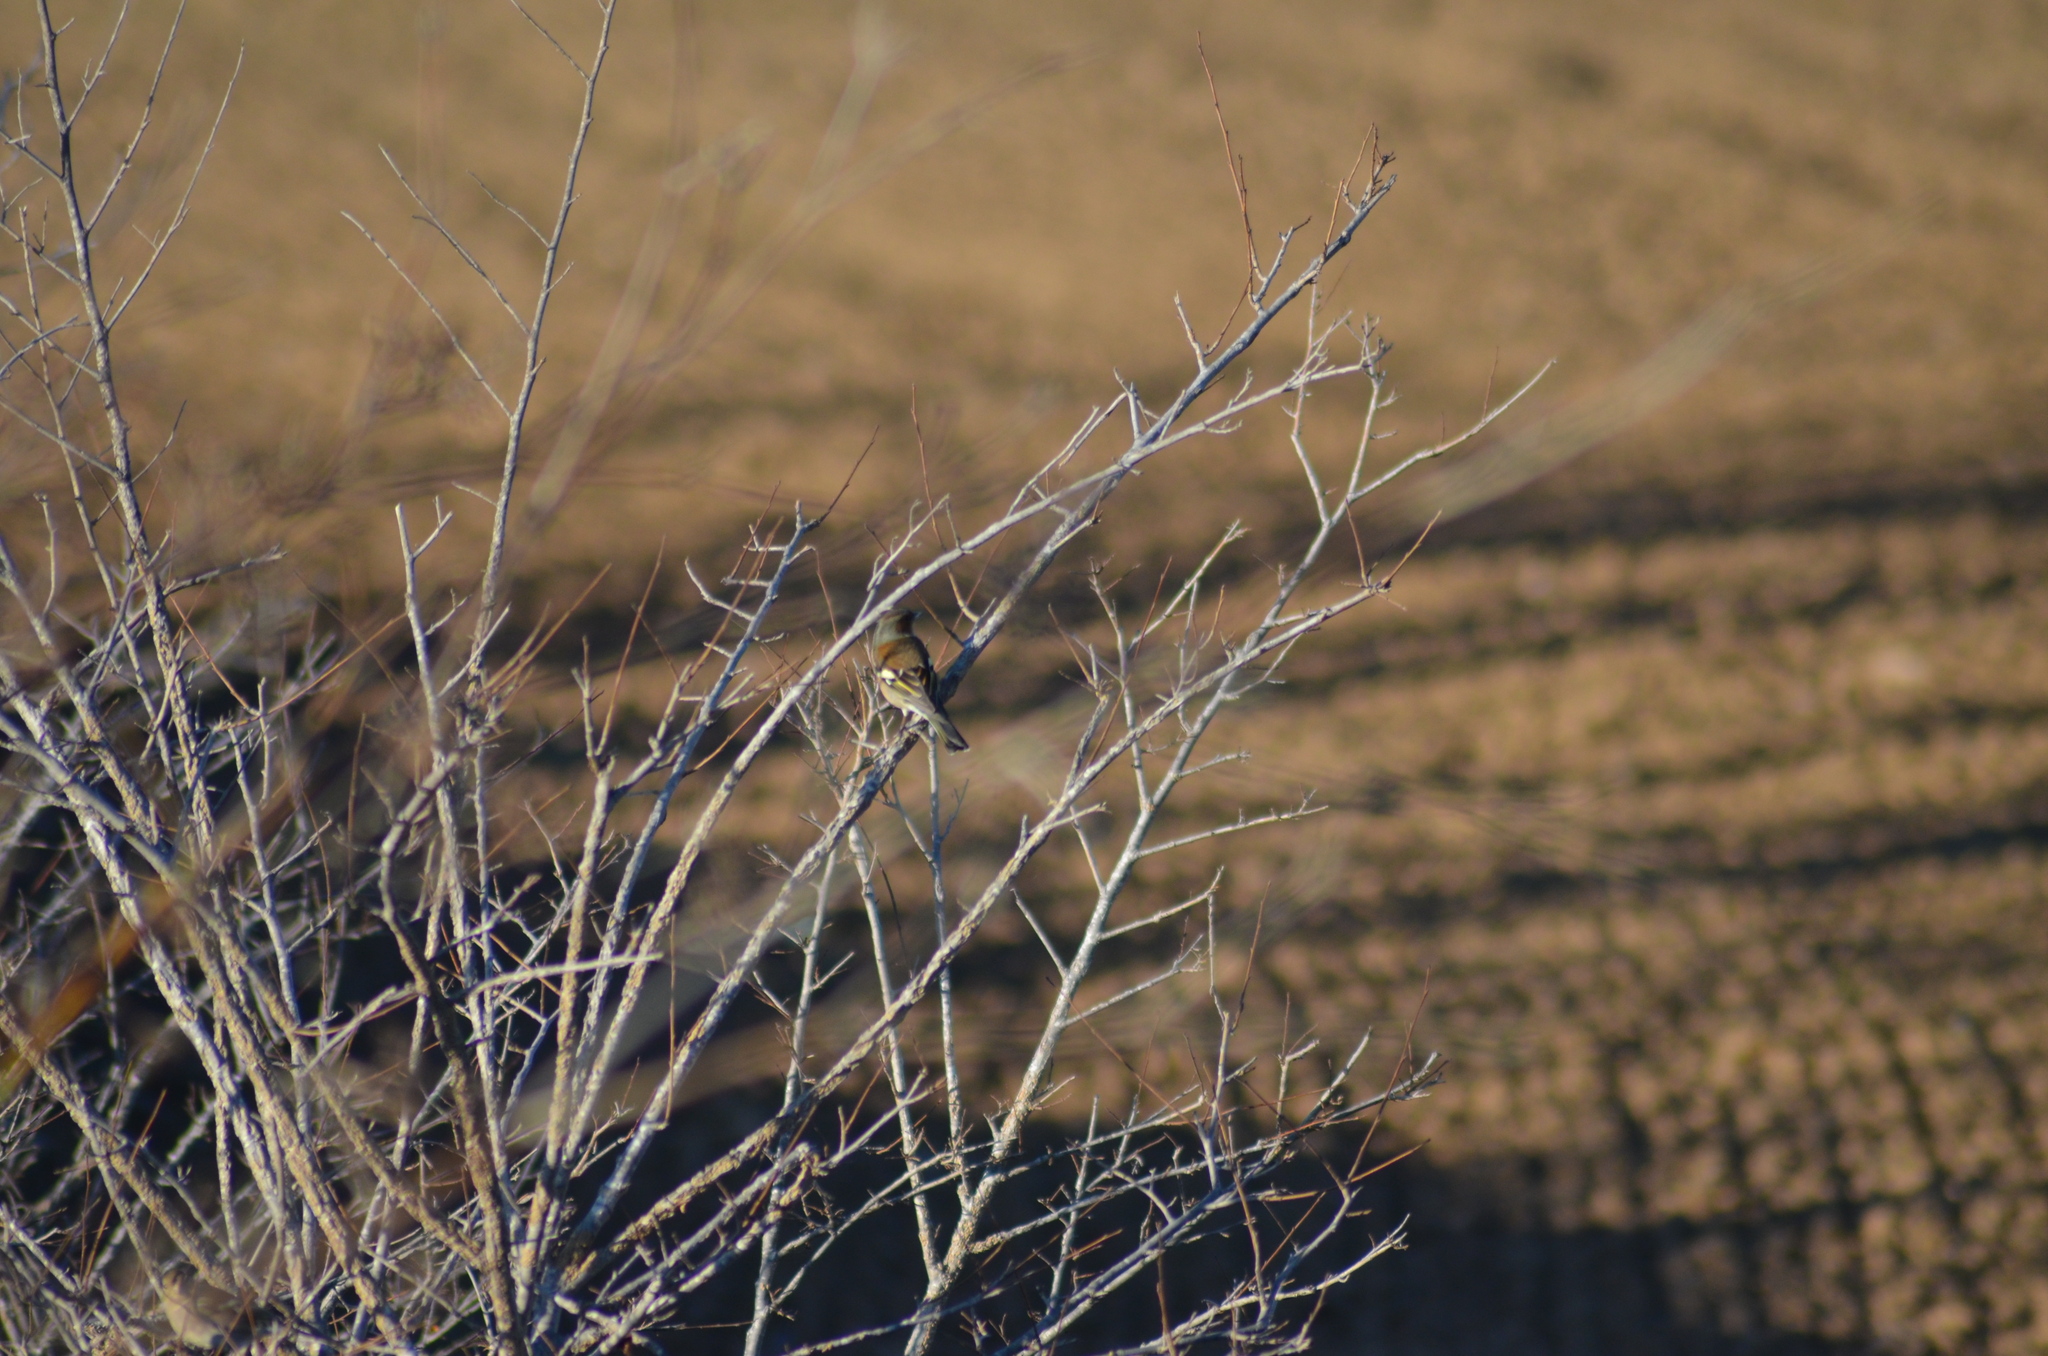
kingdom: Animalia
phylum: Chordata
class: Aves
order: Passeriformes
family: Fringillidae
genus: Fringilla
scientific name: Fringilla coelebs
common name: Common chaffinch
